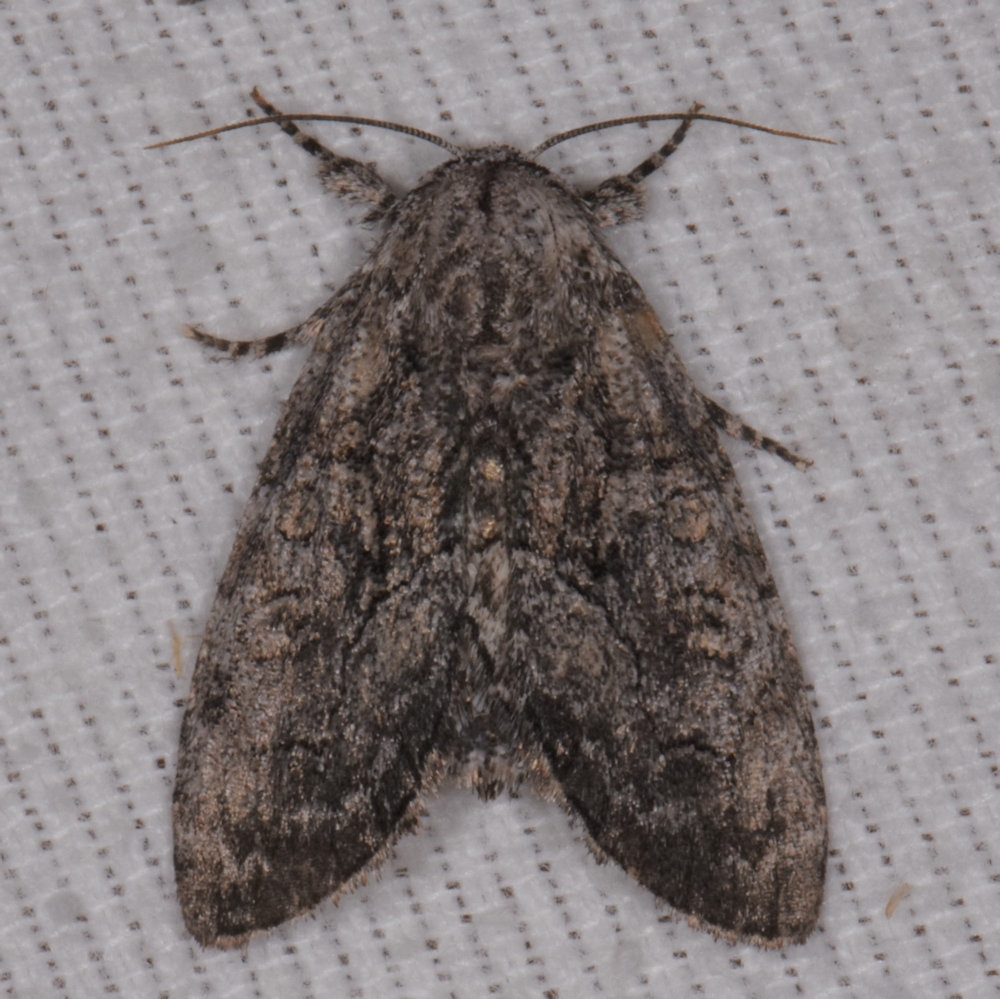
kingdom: Animalia
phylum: Arthropoda
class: Insecta
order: Lepidoptera
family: Noctuidae
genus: Raphia
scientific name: Raphia frater
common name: Brother
